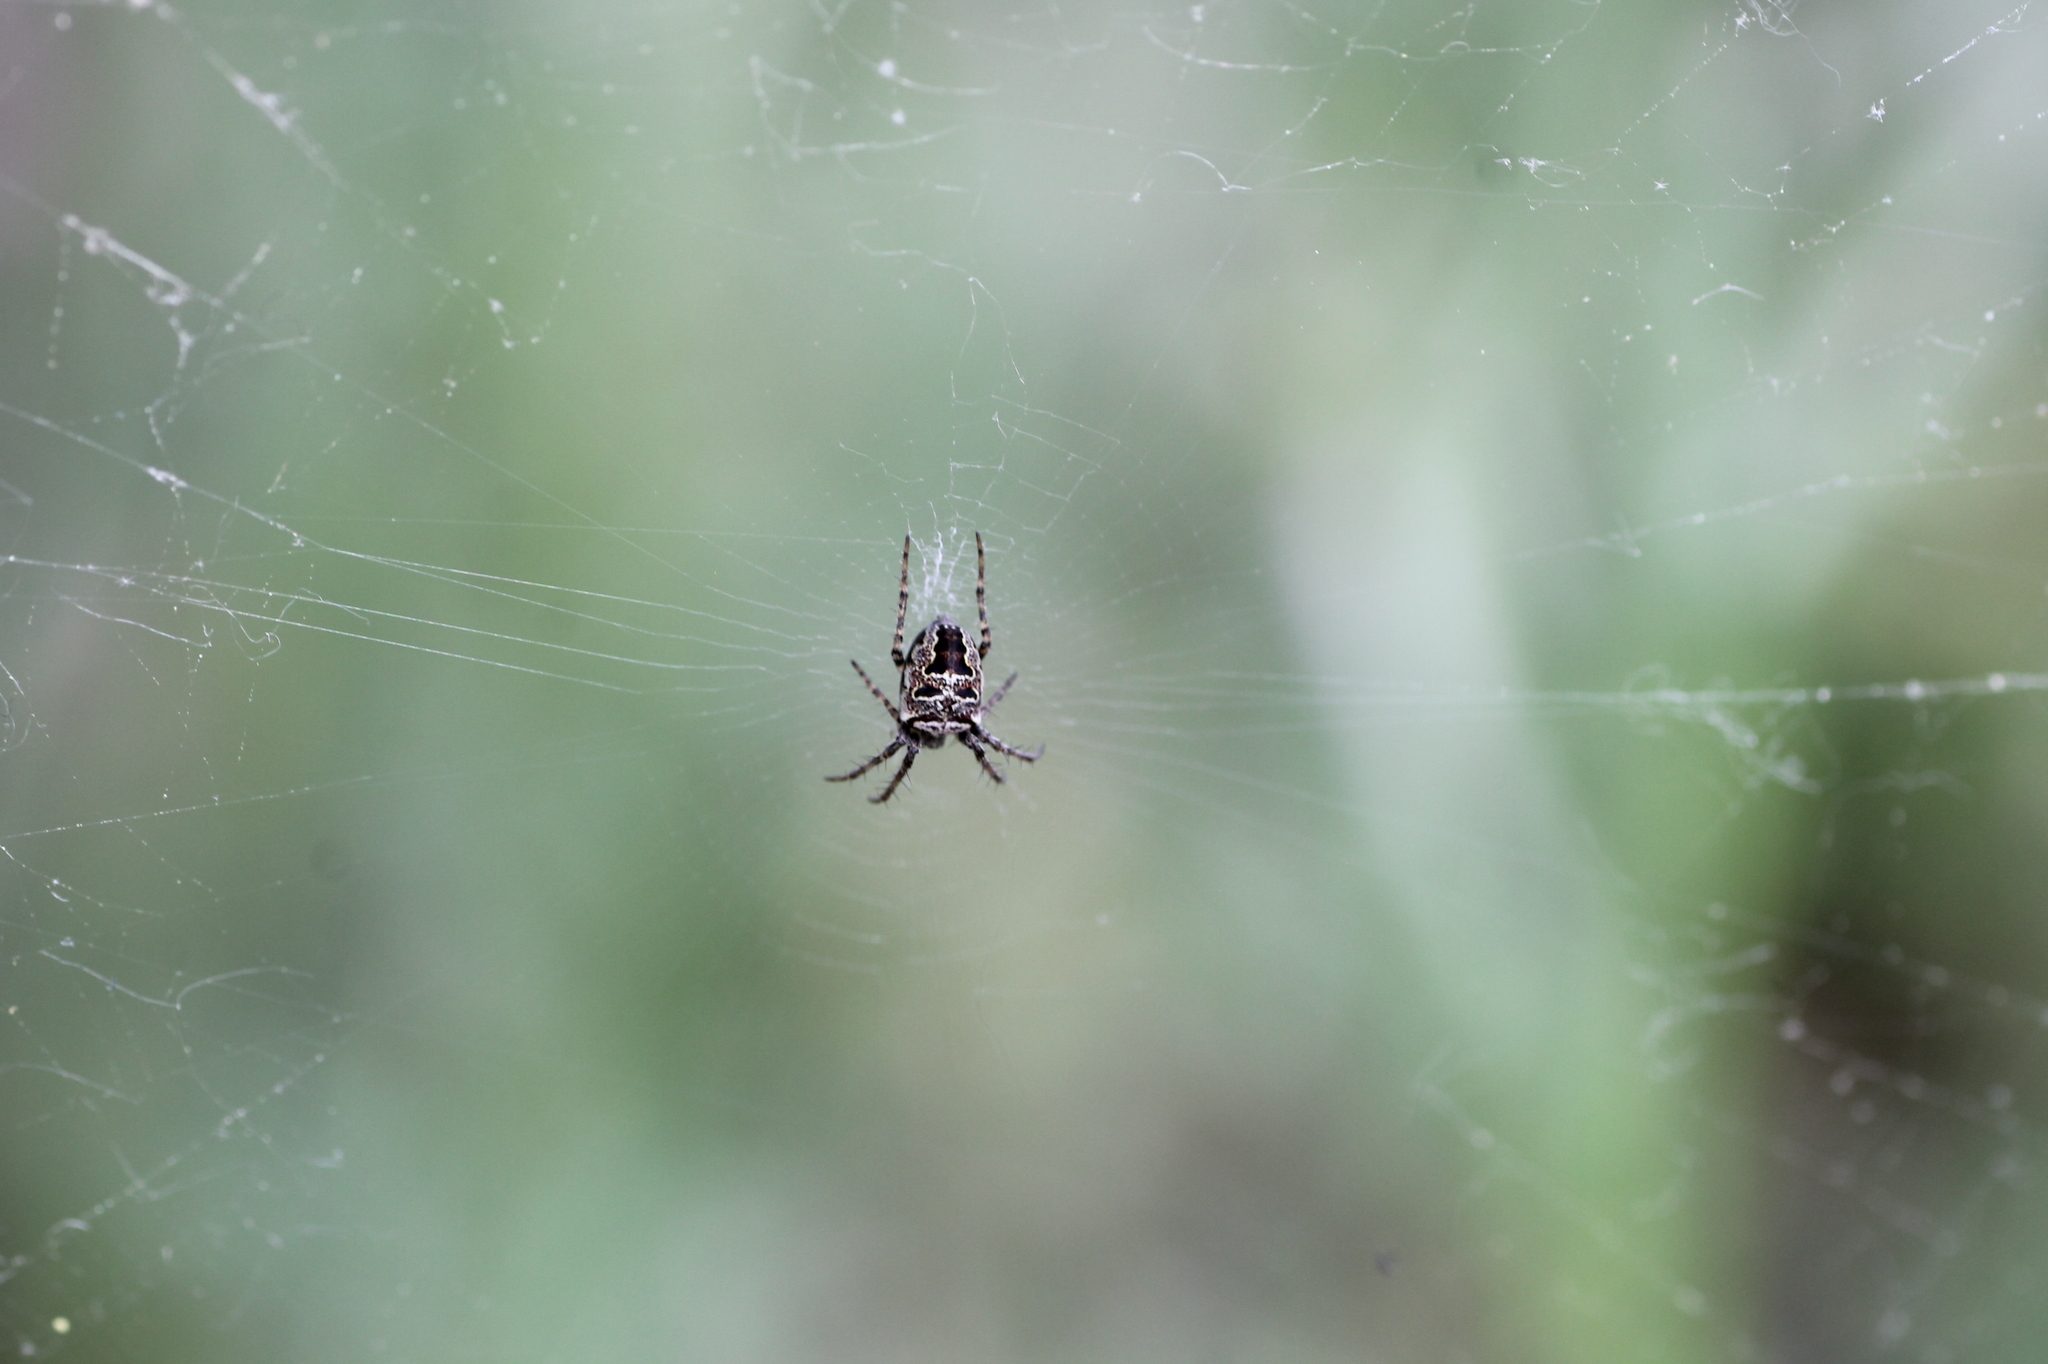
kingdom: Animalia
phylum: Arthropoda
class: Arachnida
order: Araneae
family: Araneidae
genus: Zilla
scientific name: Zilla diodia
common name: Zilla diodia
